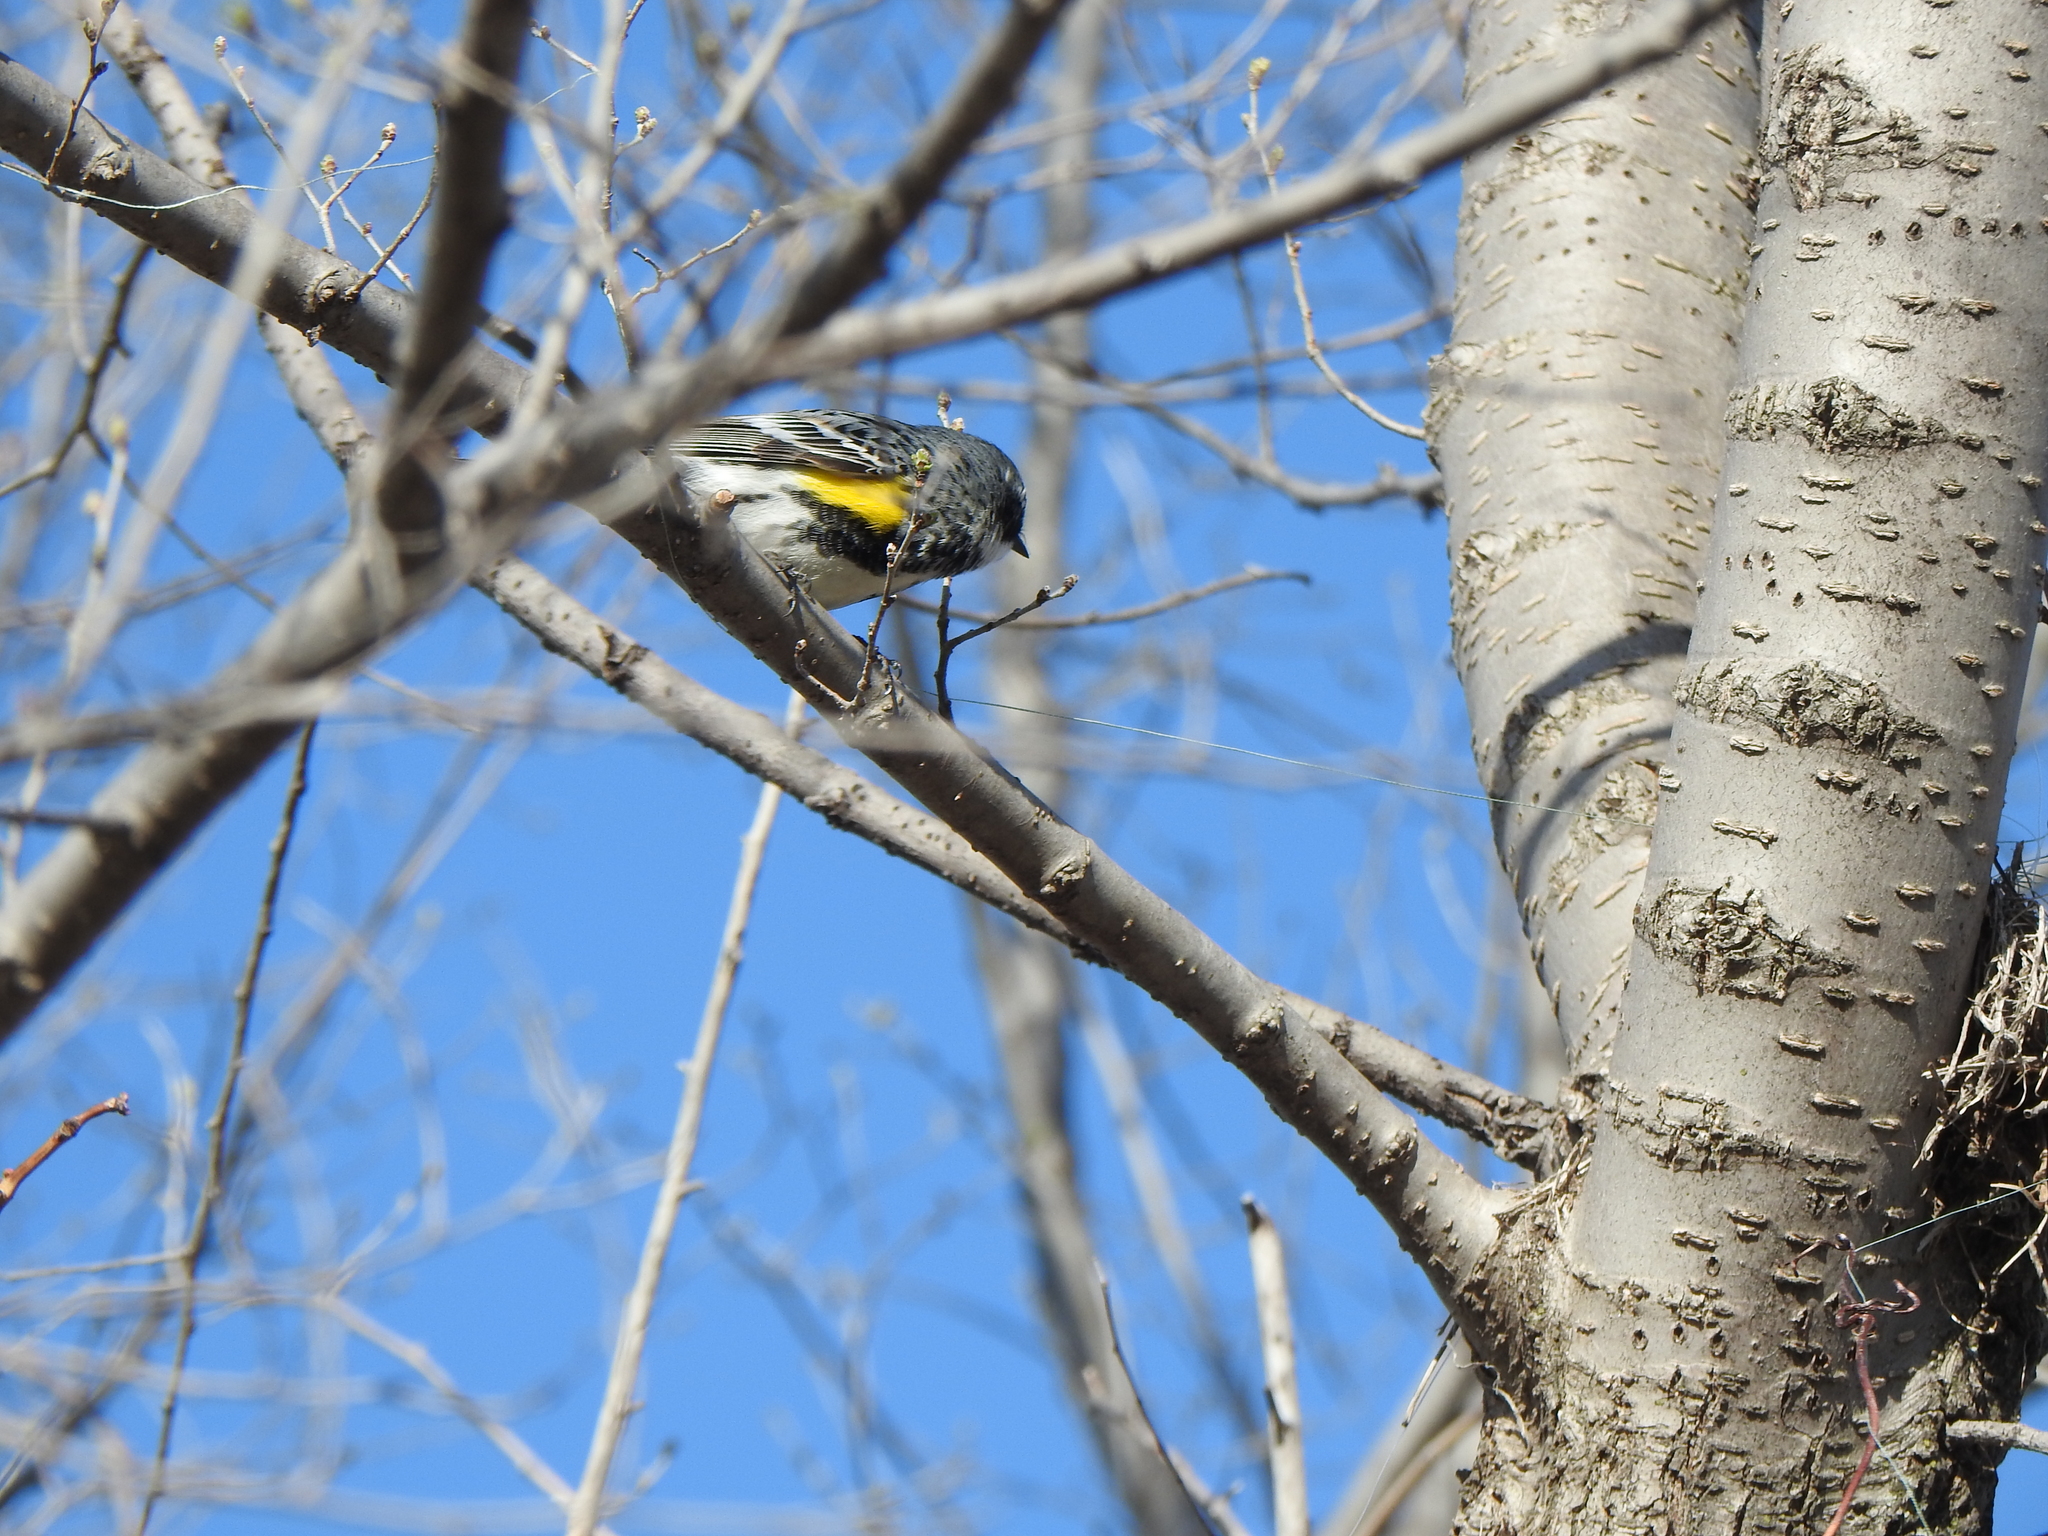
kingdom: Animalia
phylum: Chordata
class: Aves
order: Passeriformes
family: Parulidae
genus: Setophaga
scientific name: Setophaga coronata
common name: Myrtle warbler
